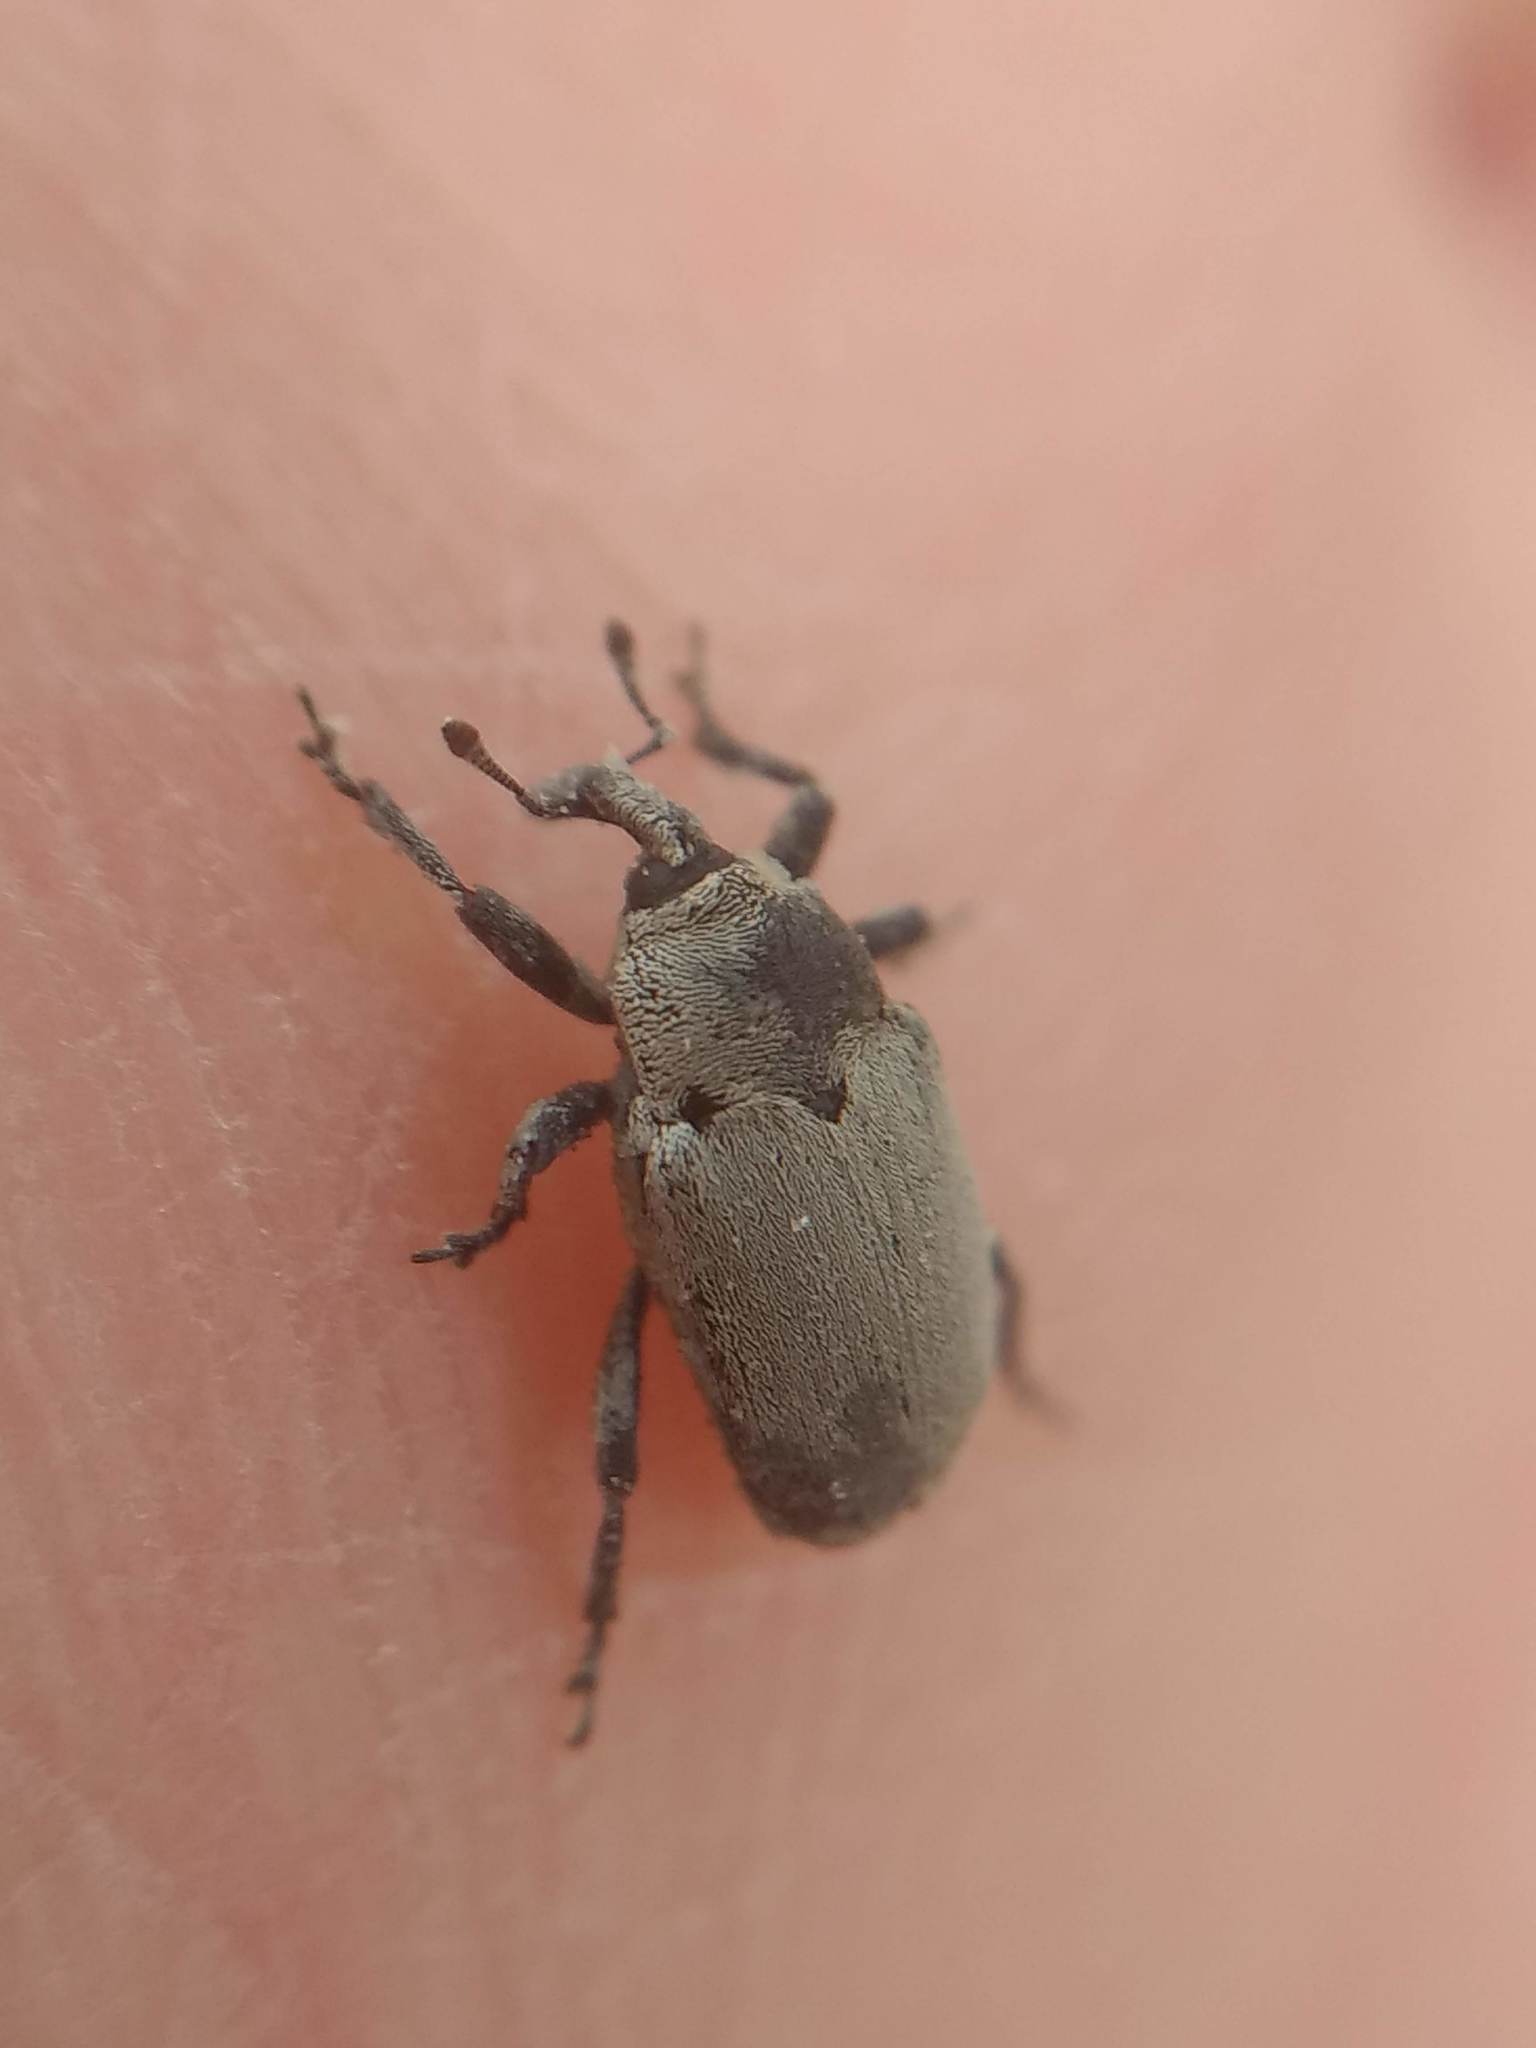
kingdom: Animalia
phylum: Arthropoda
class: Insecta
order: Coleoptera
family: Curculionidae
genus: Trichobaris
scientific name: Trichobaris compacta
